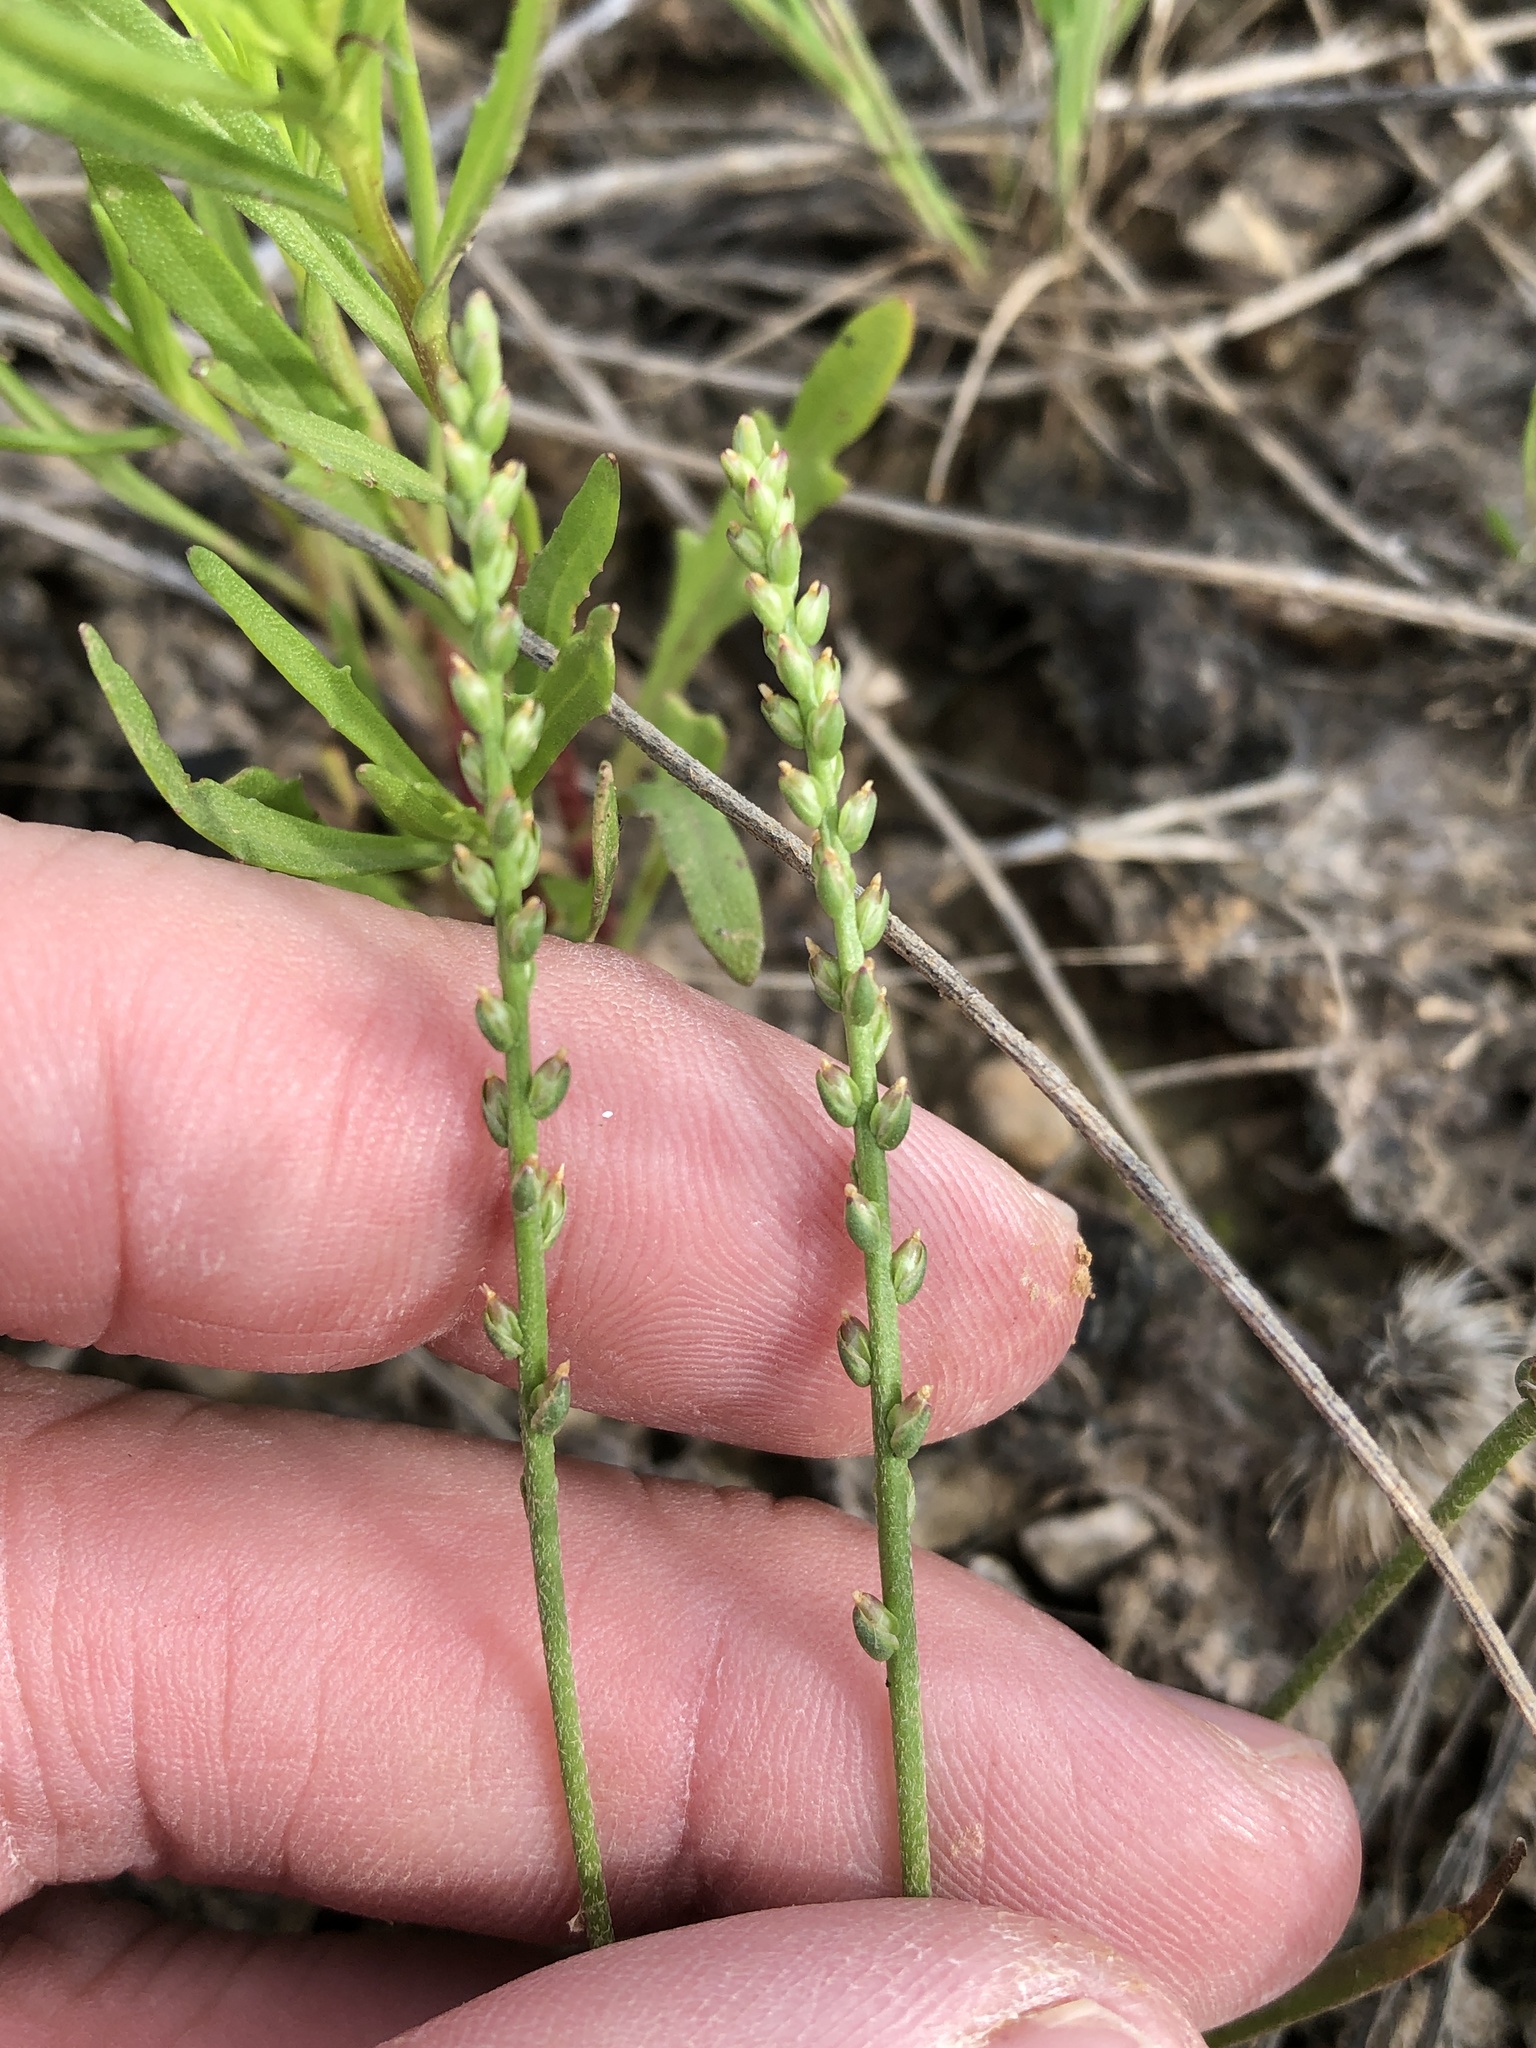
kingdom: Plantae
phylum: Tracheophyta
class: Magnoliopsida
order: Lamiales
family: Plantaginaceae
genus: Plantago
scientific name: Plantago heterophylla
